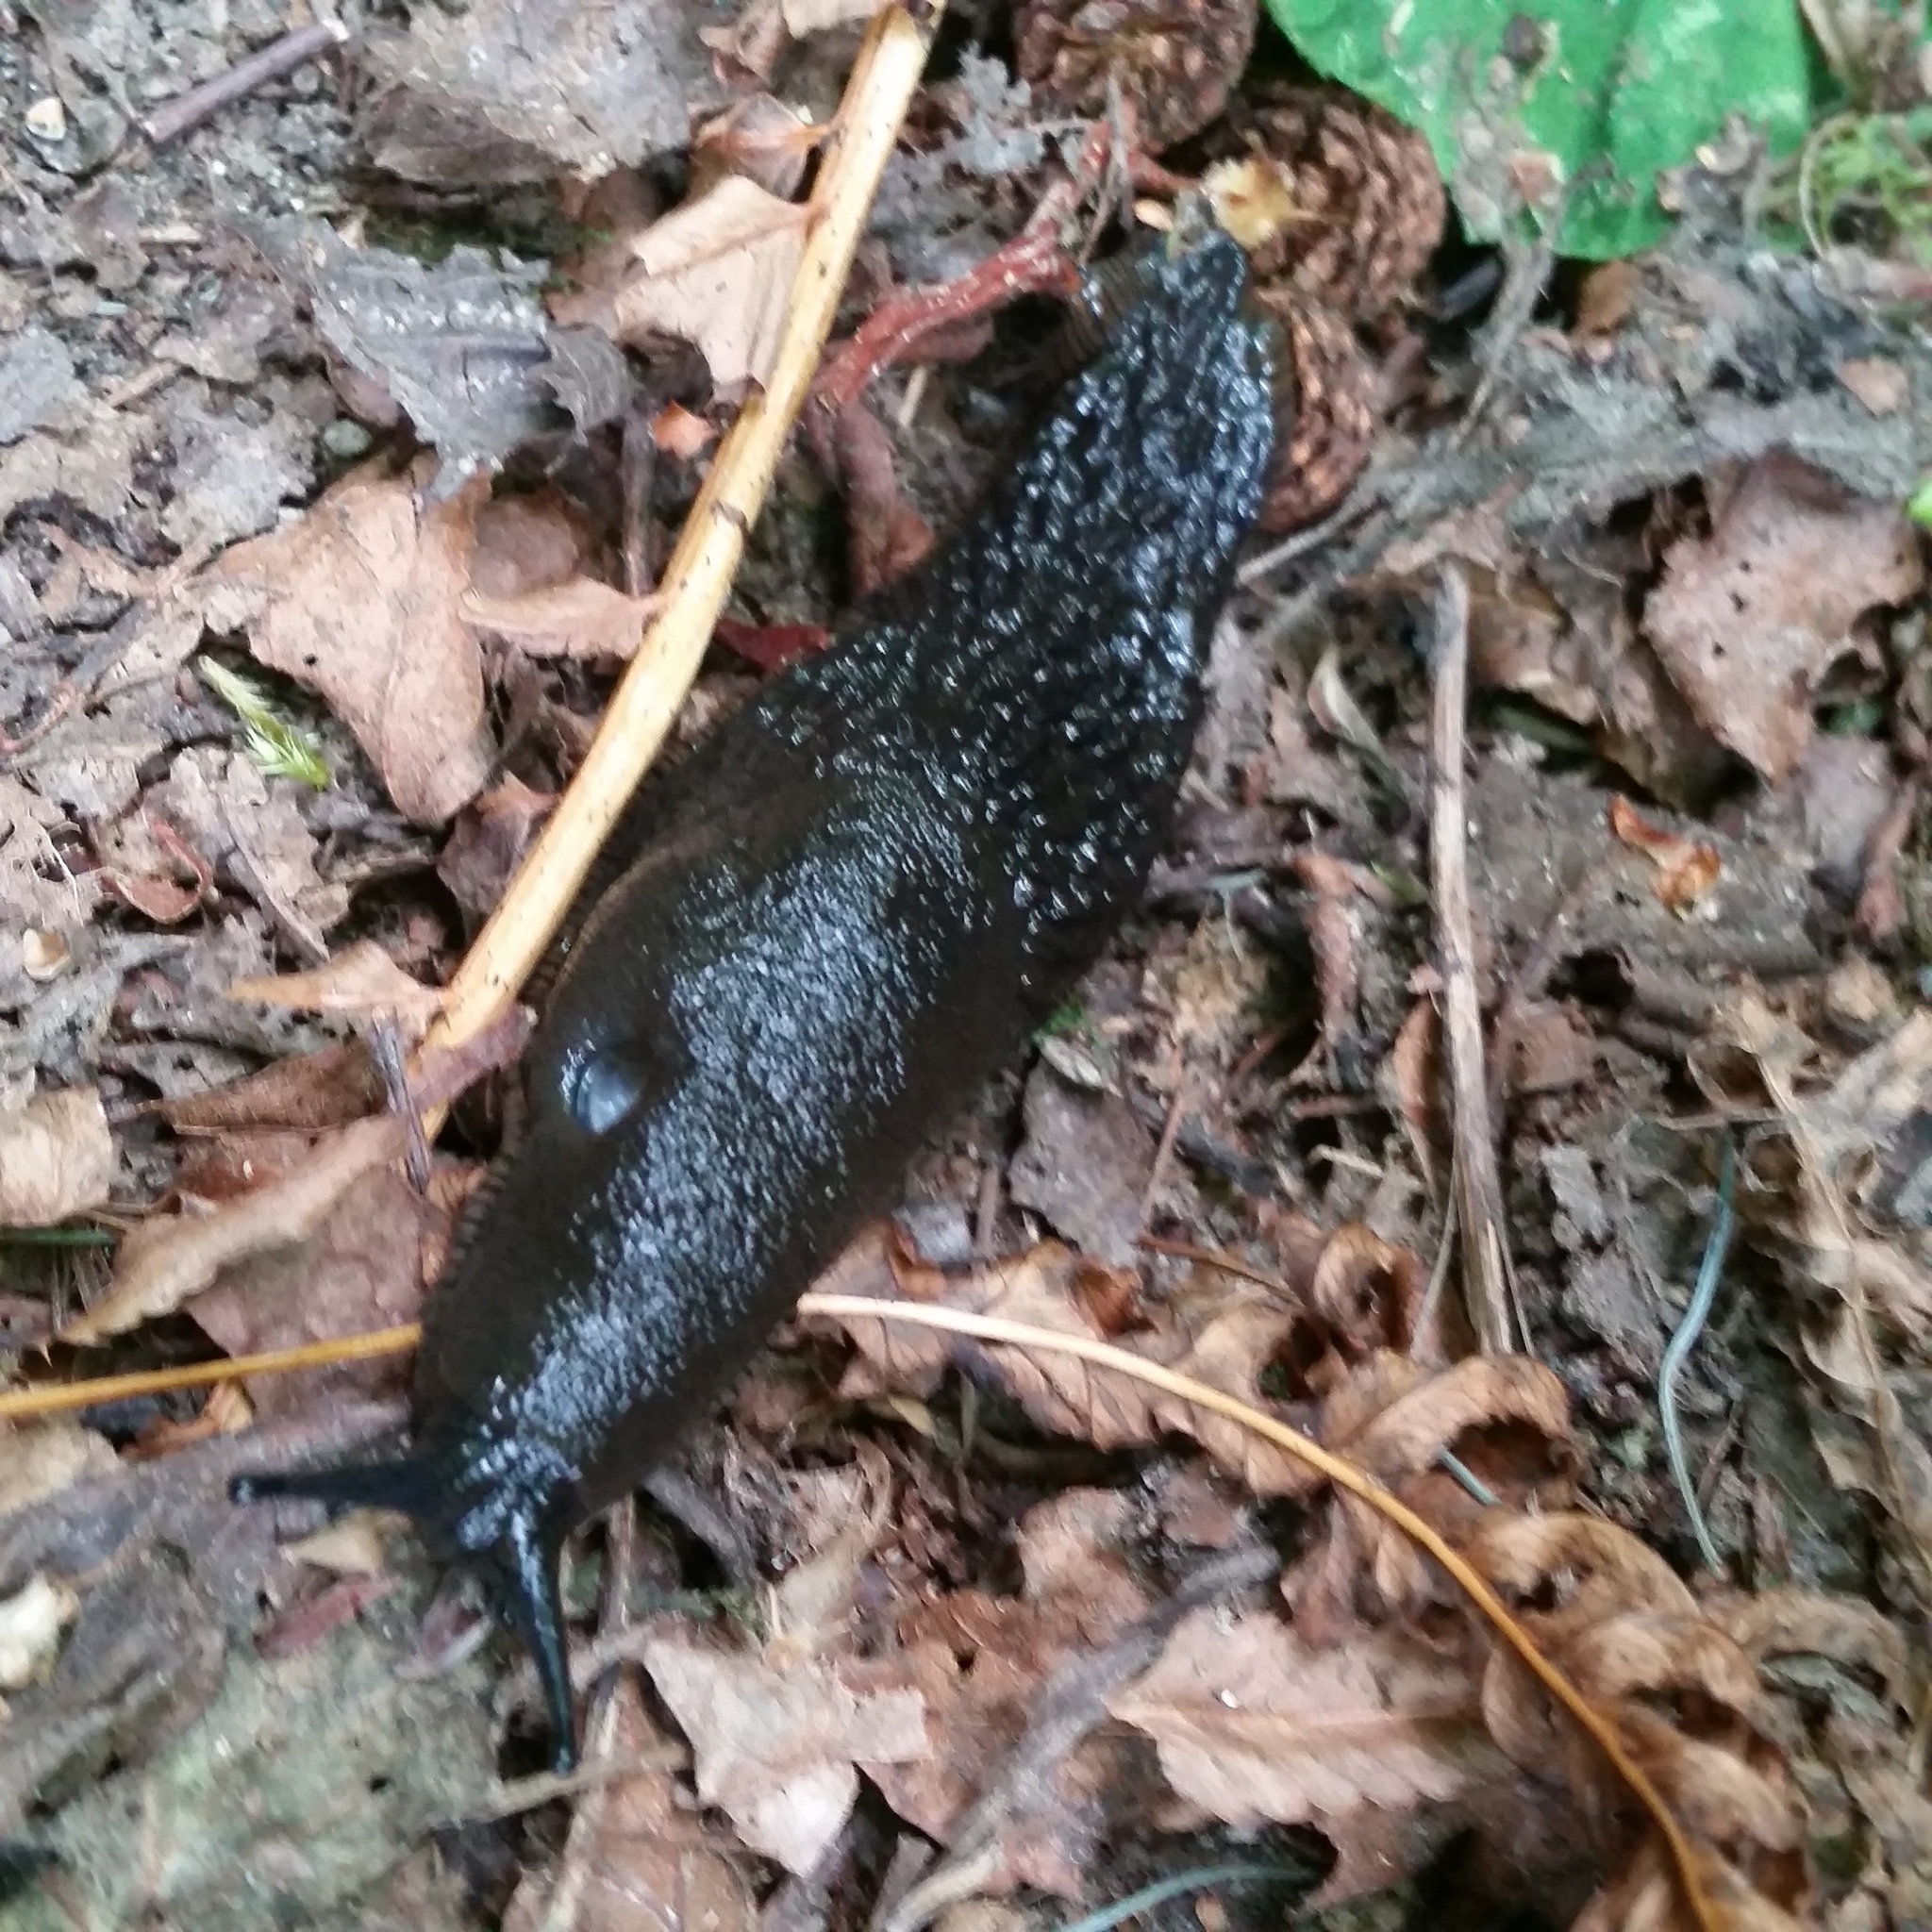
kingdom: Animalia
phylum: Mollusca
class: Gastropoda
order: Stylommatophora
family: Arionidae
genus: Arion
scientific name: Arion
